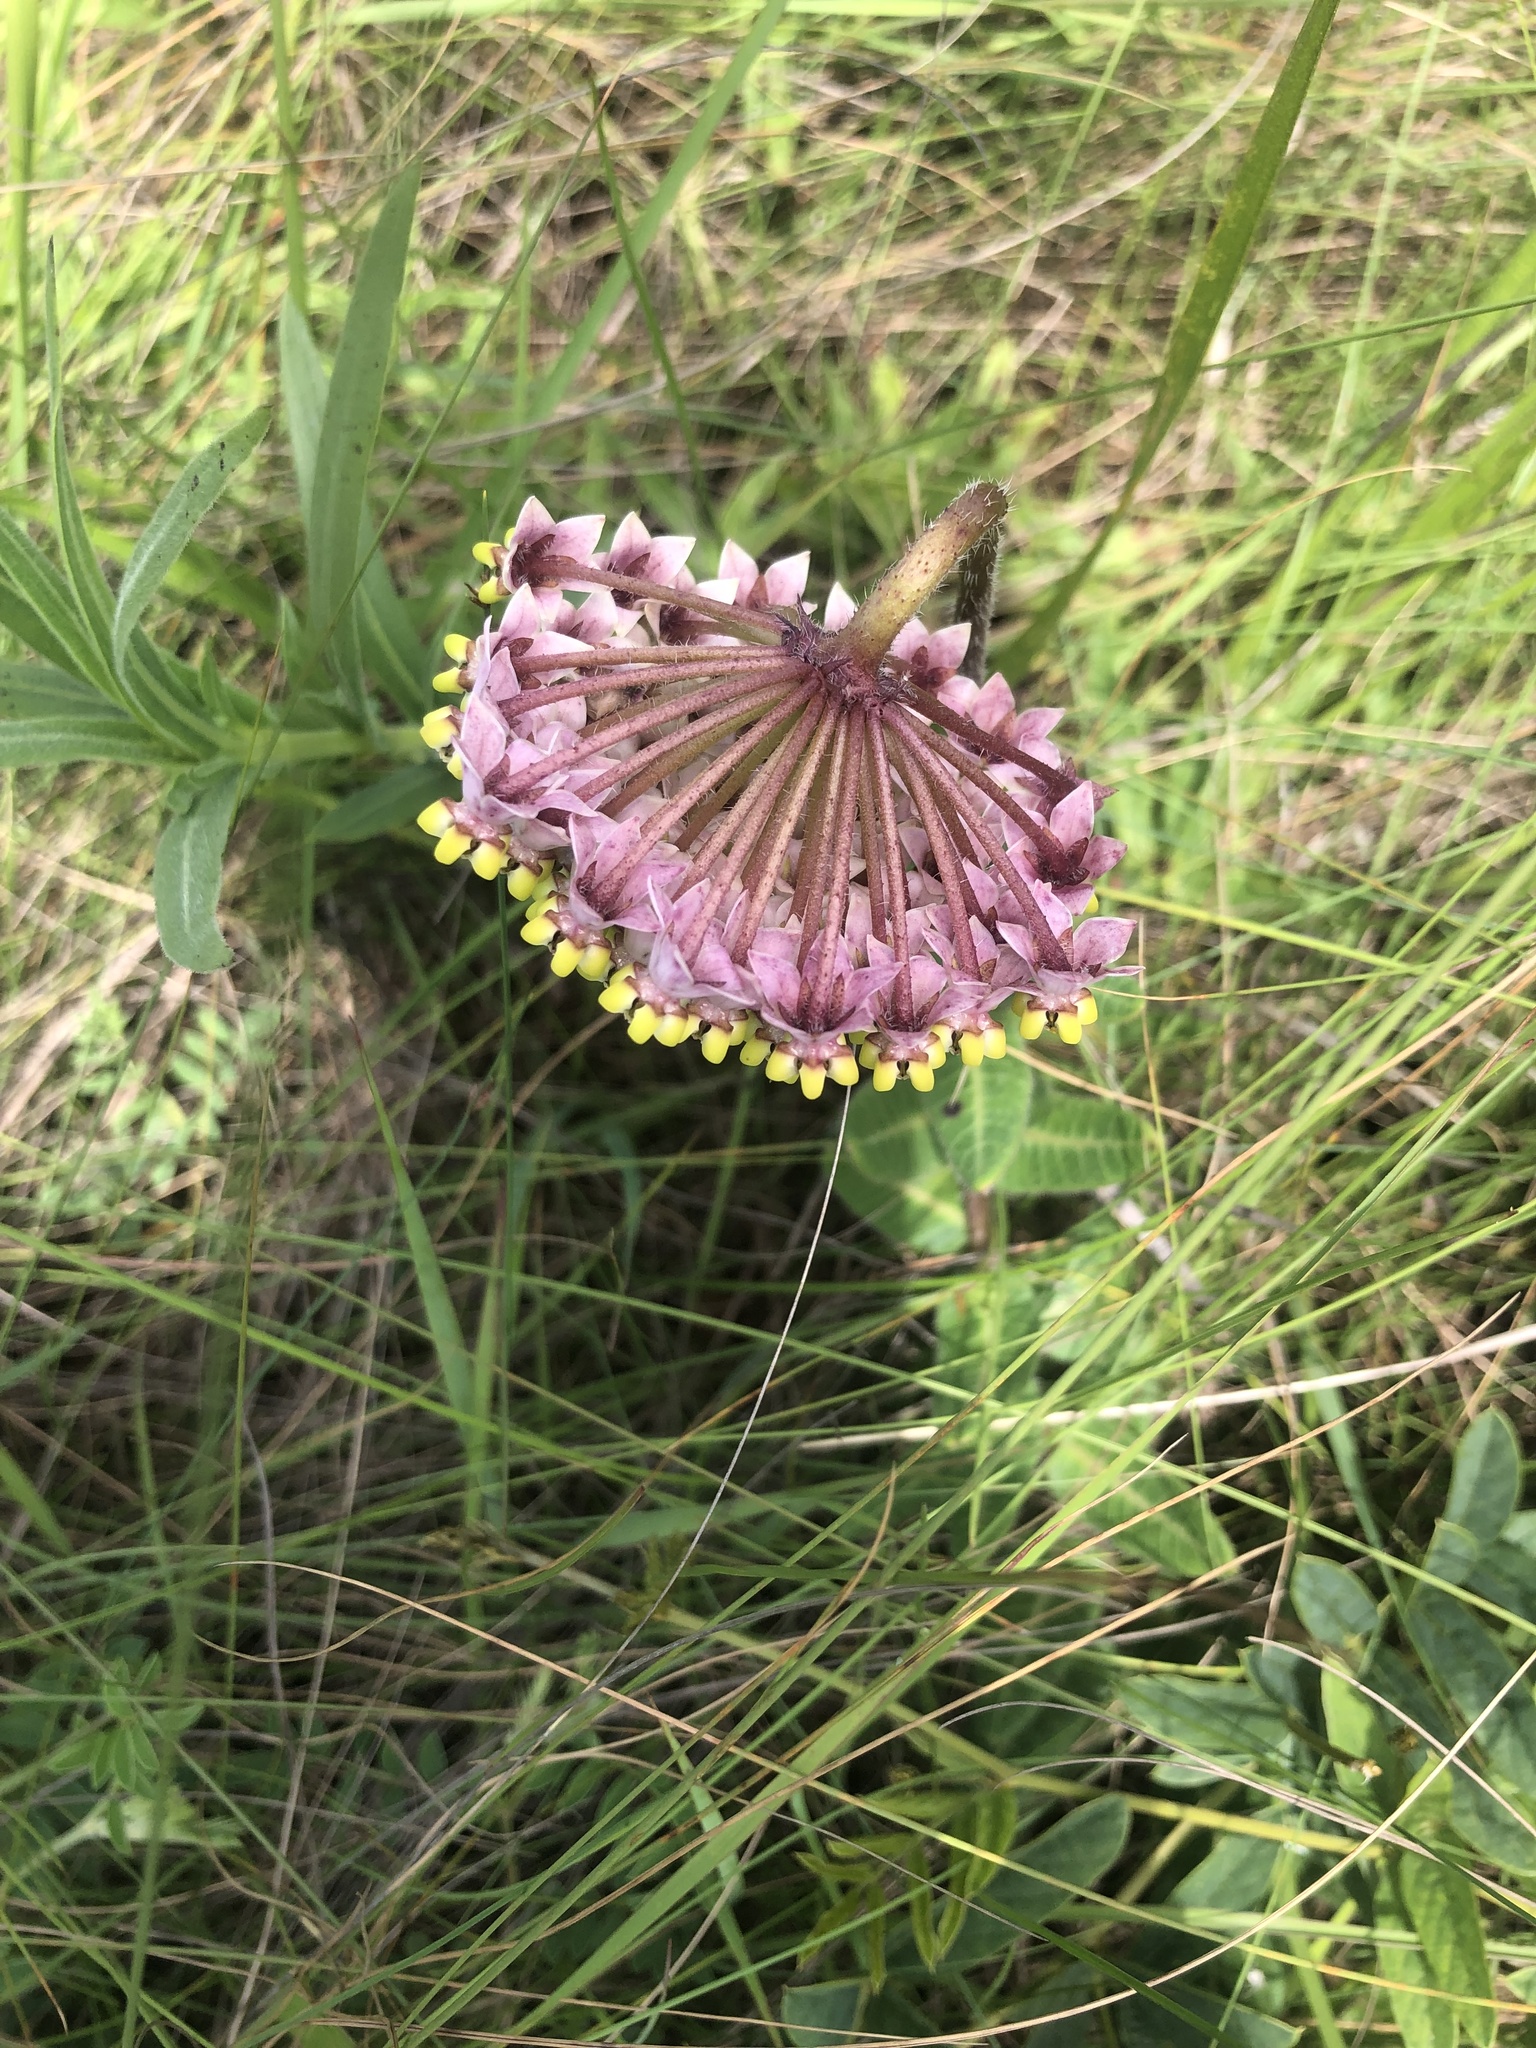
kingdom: Plantae
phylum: Tracheophyta
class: Magnoliopsida
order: Gentianales
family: Apocynaceae
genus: Asclepias
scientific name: Asclepias albens
